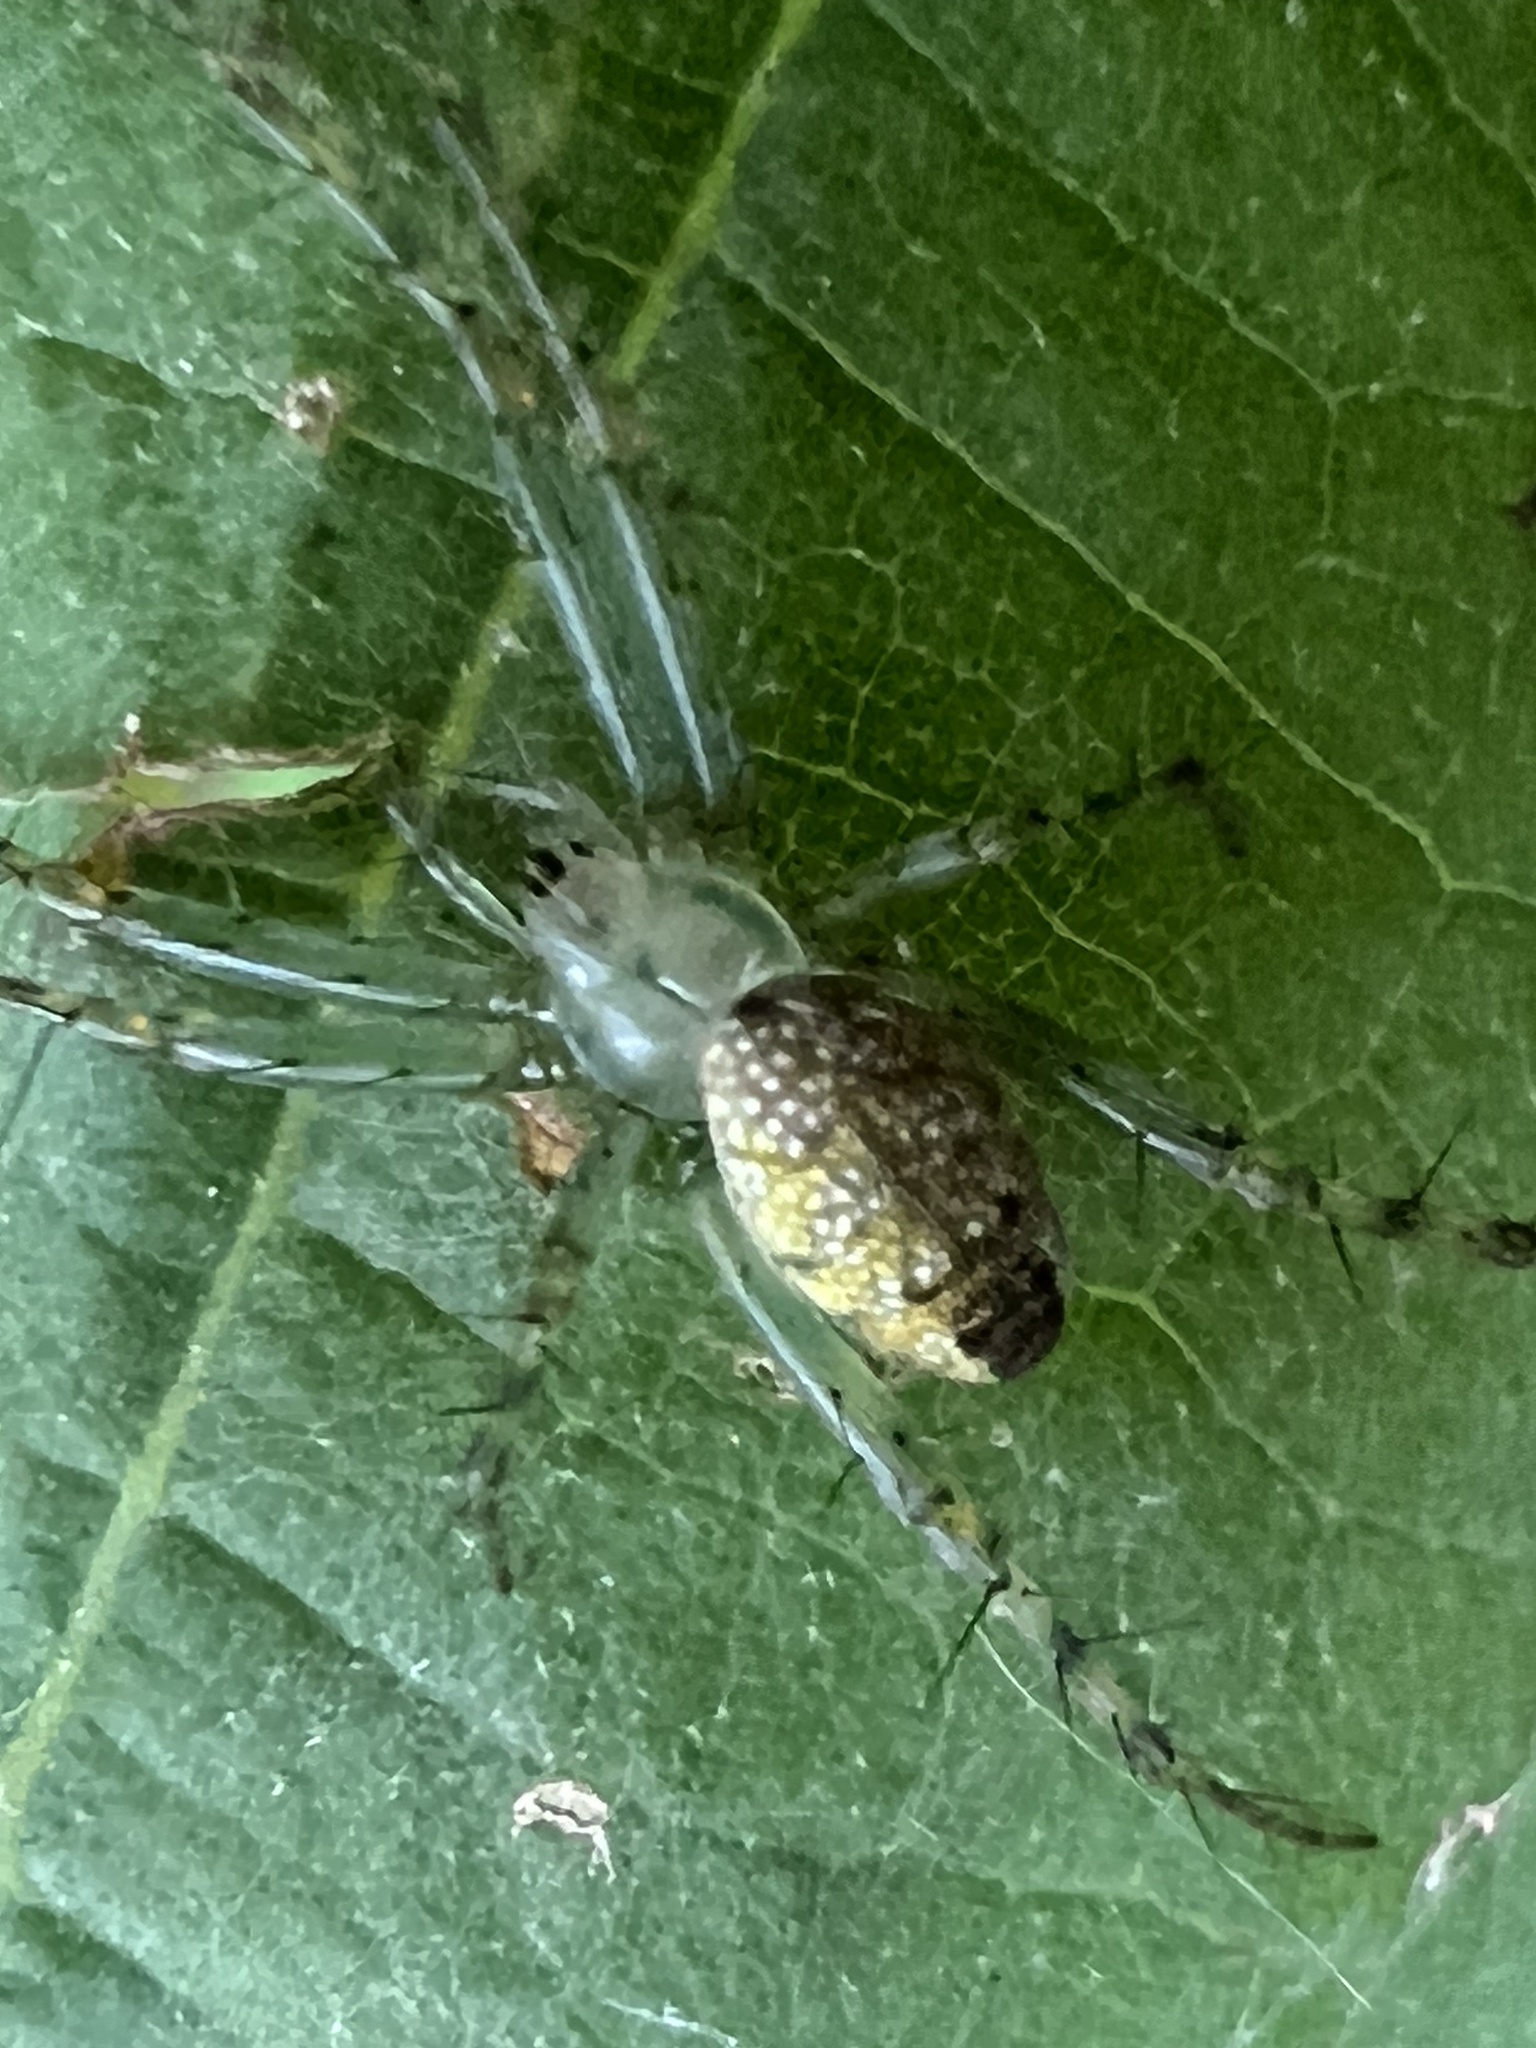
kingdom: Animalia
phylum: Arthropoda
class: Arachnida
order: Araneae
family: Araneidae
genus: Mangora
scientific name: Mangora maculata
